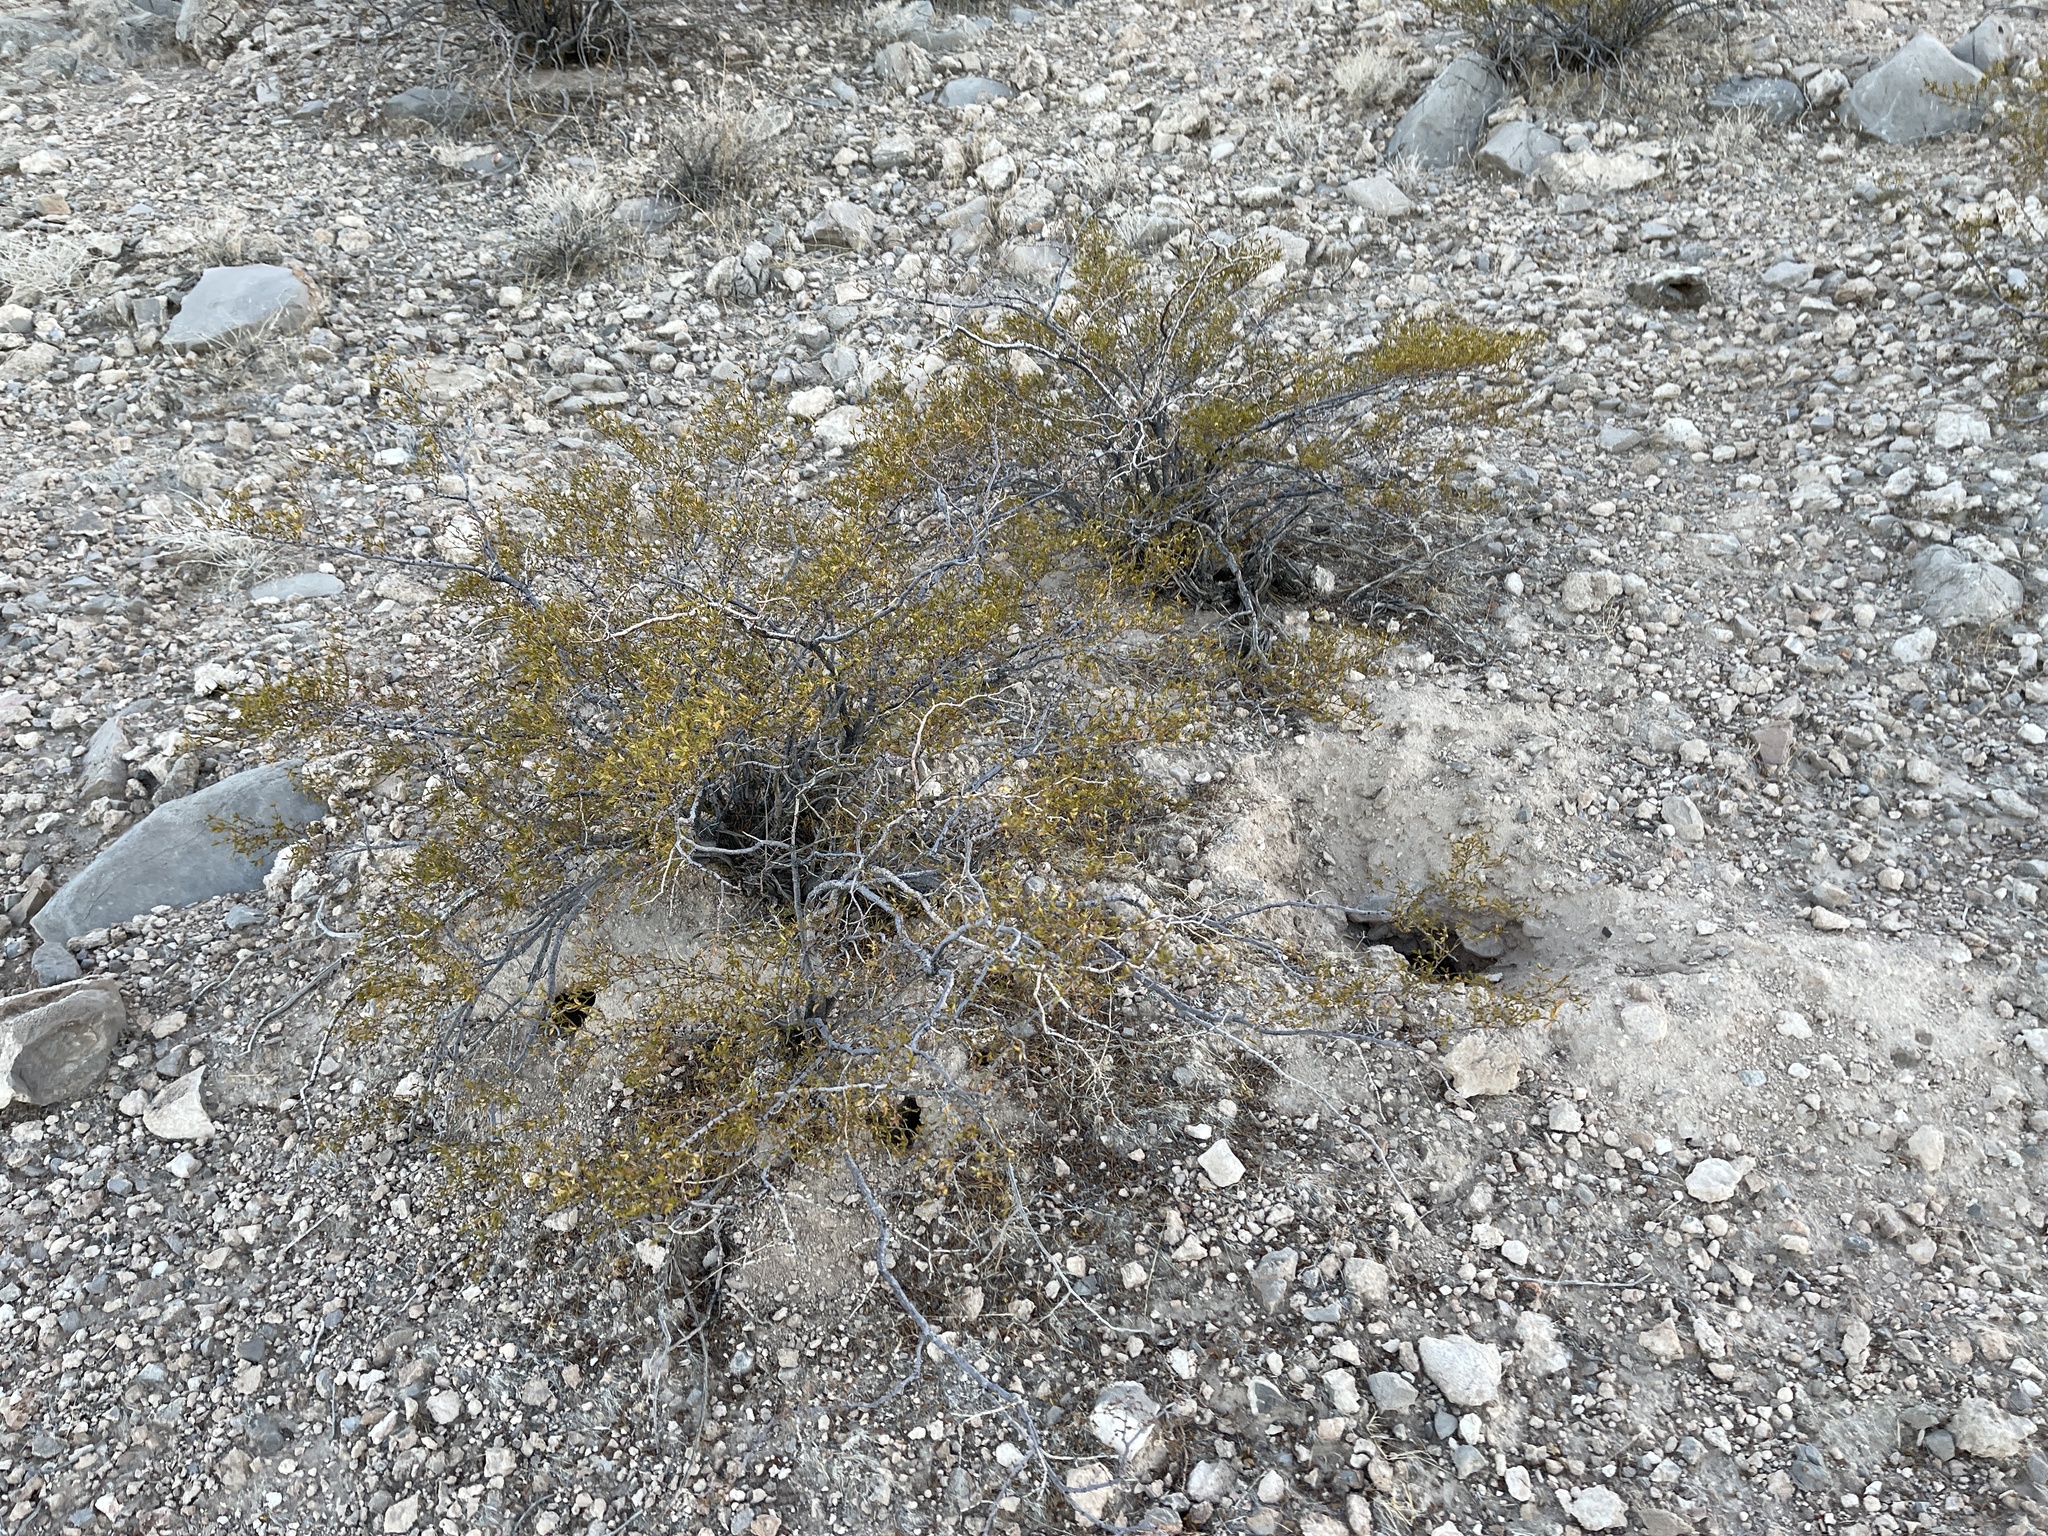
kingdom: Plantae
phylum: Tracheophyta
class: Magnoliopsida
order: Zygophyllales
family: Zygophyllaceae
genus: Larrea
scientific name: Larrea tridentata
